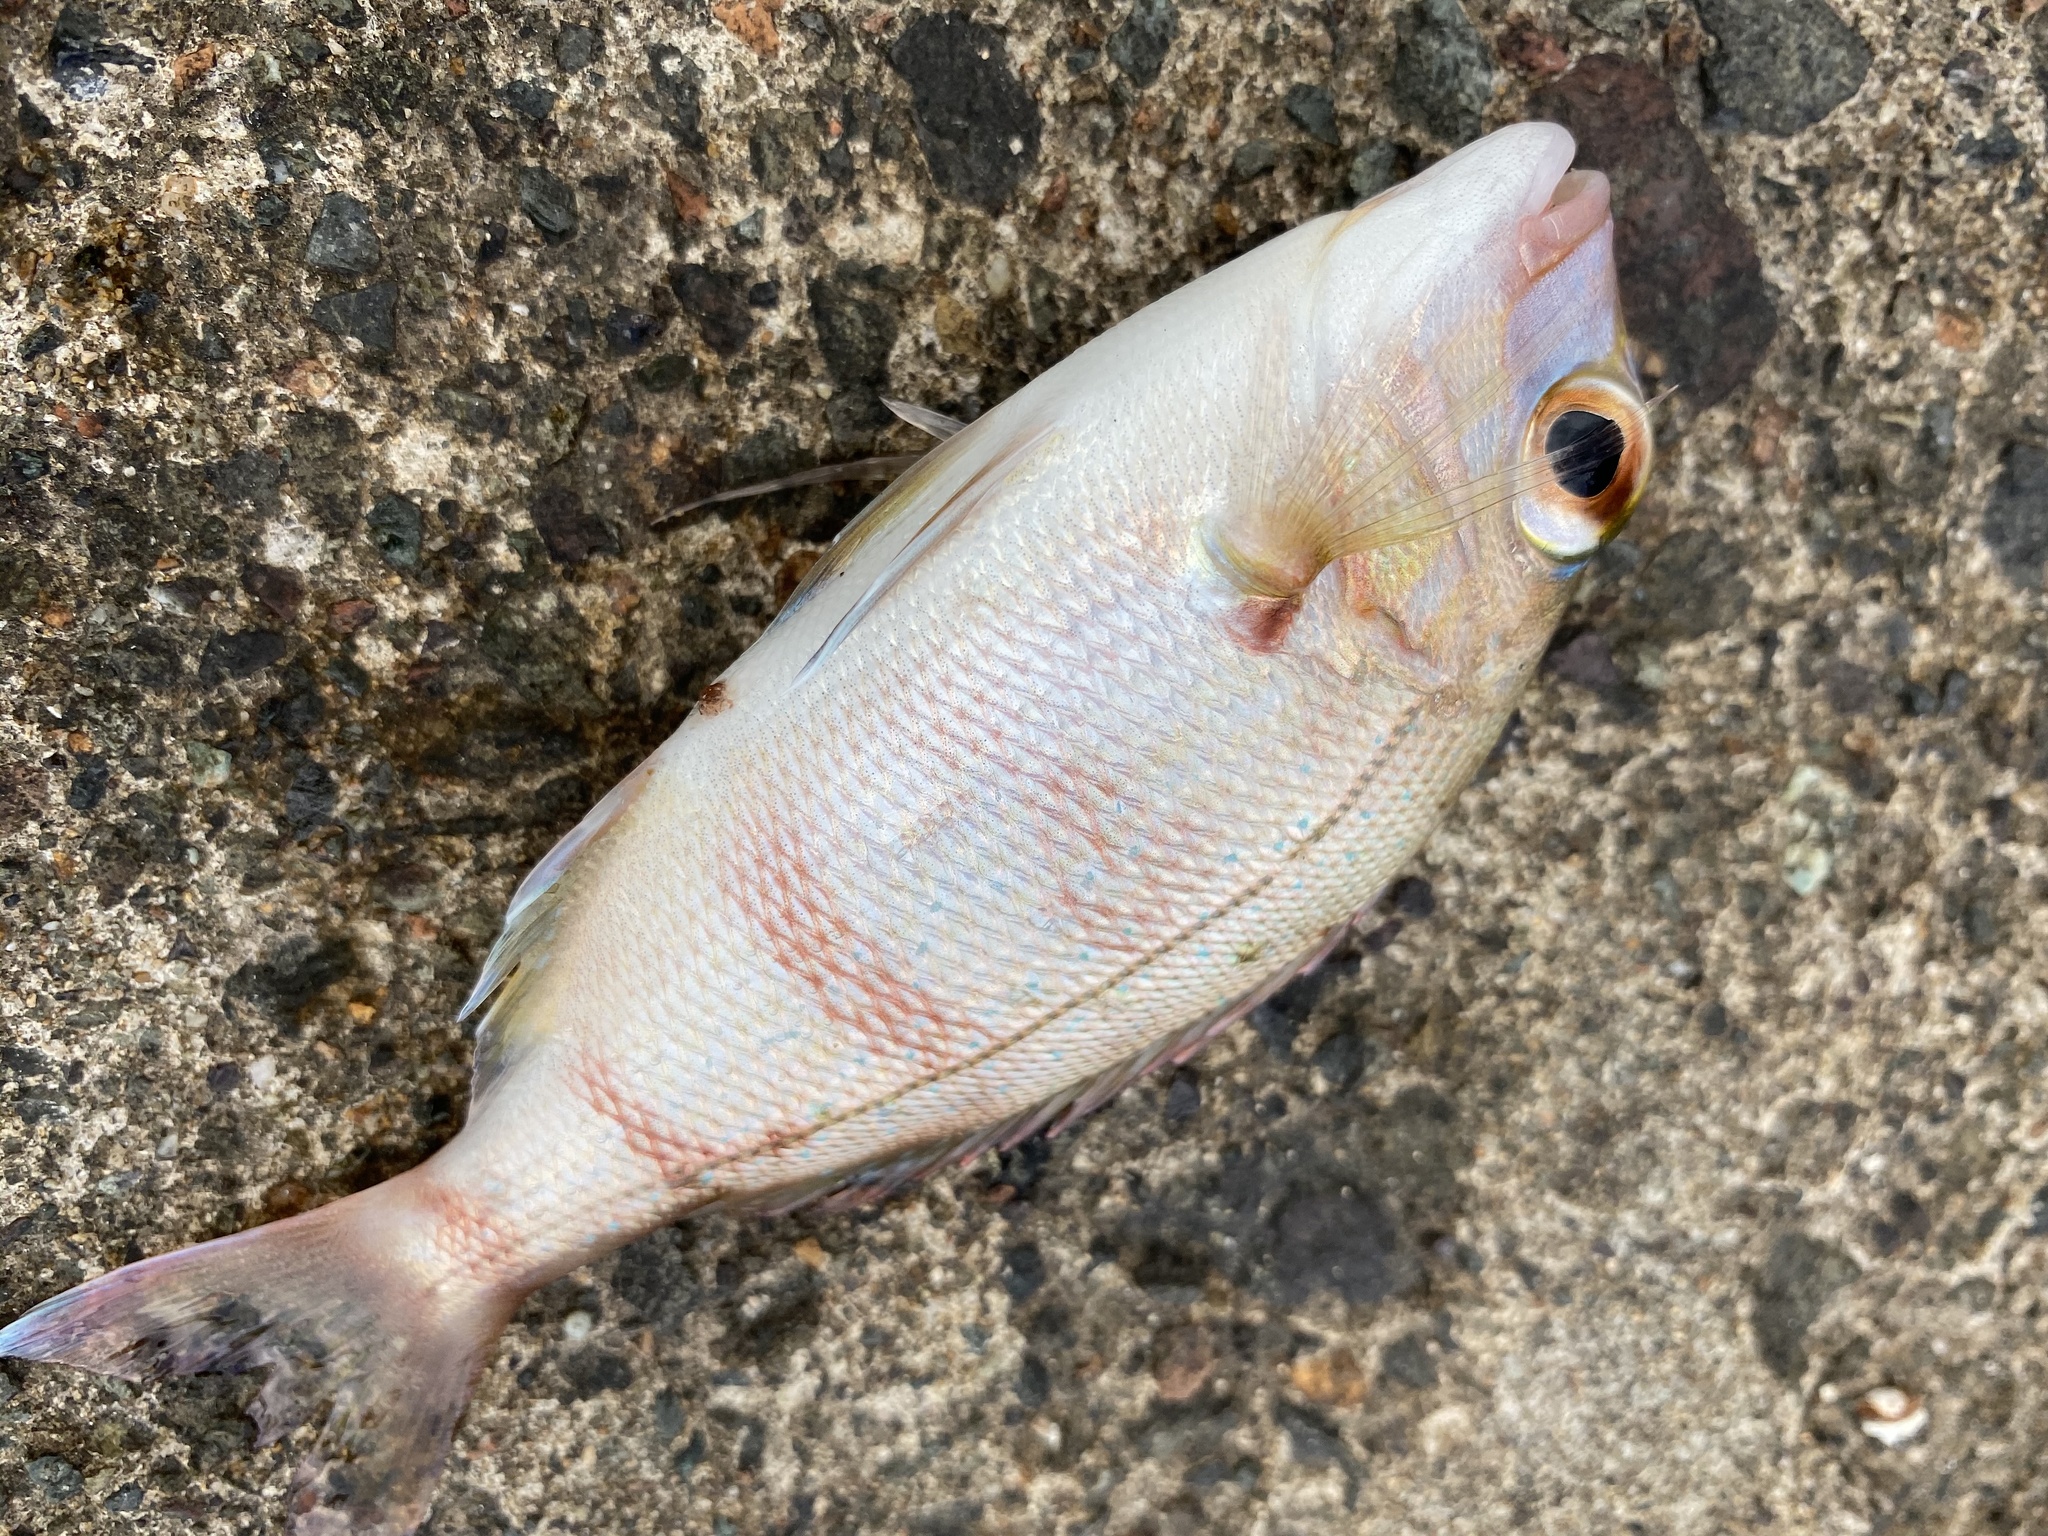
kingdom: Animalia
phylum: Chordata
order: Perciformes
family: Sparidae
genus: Pagrus
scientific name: Pagrus major
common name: Red sea bream
